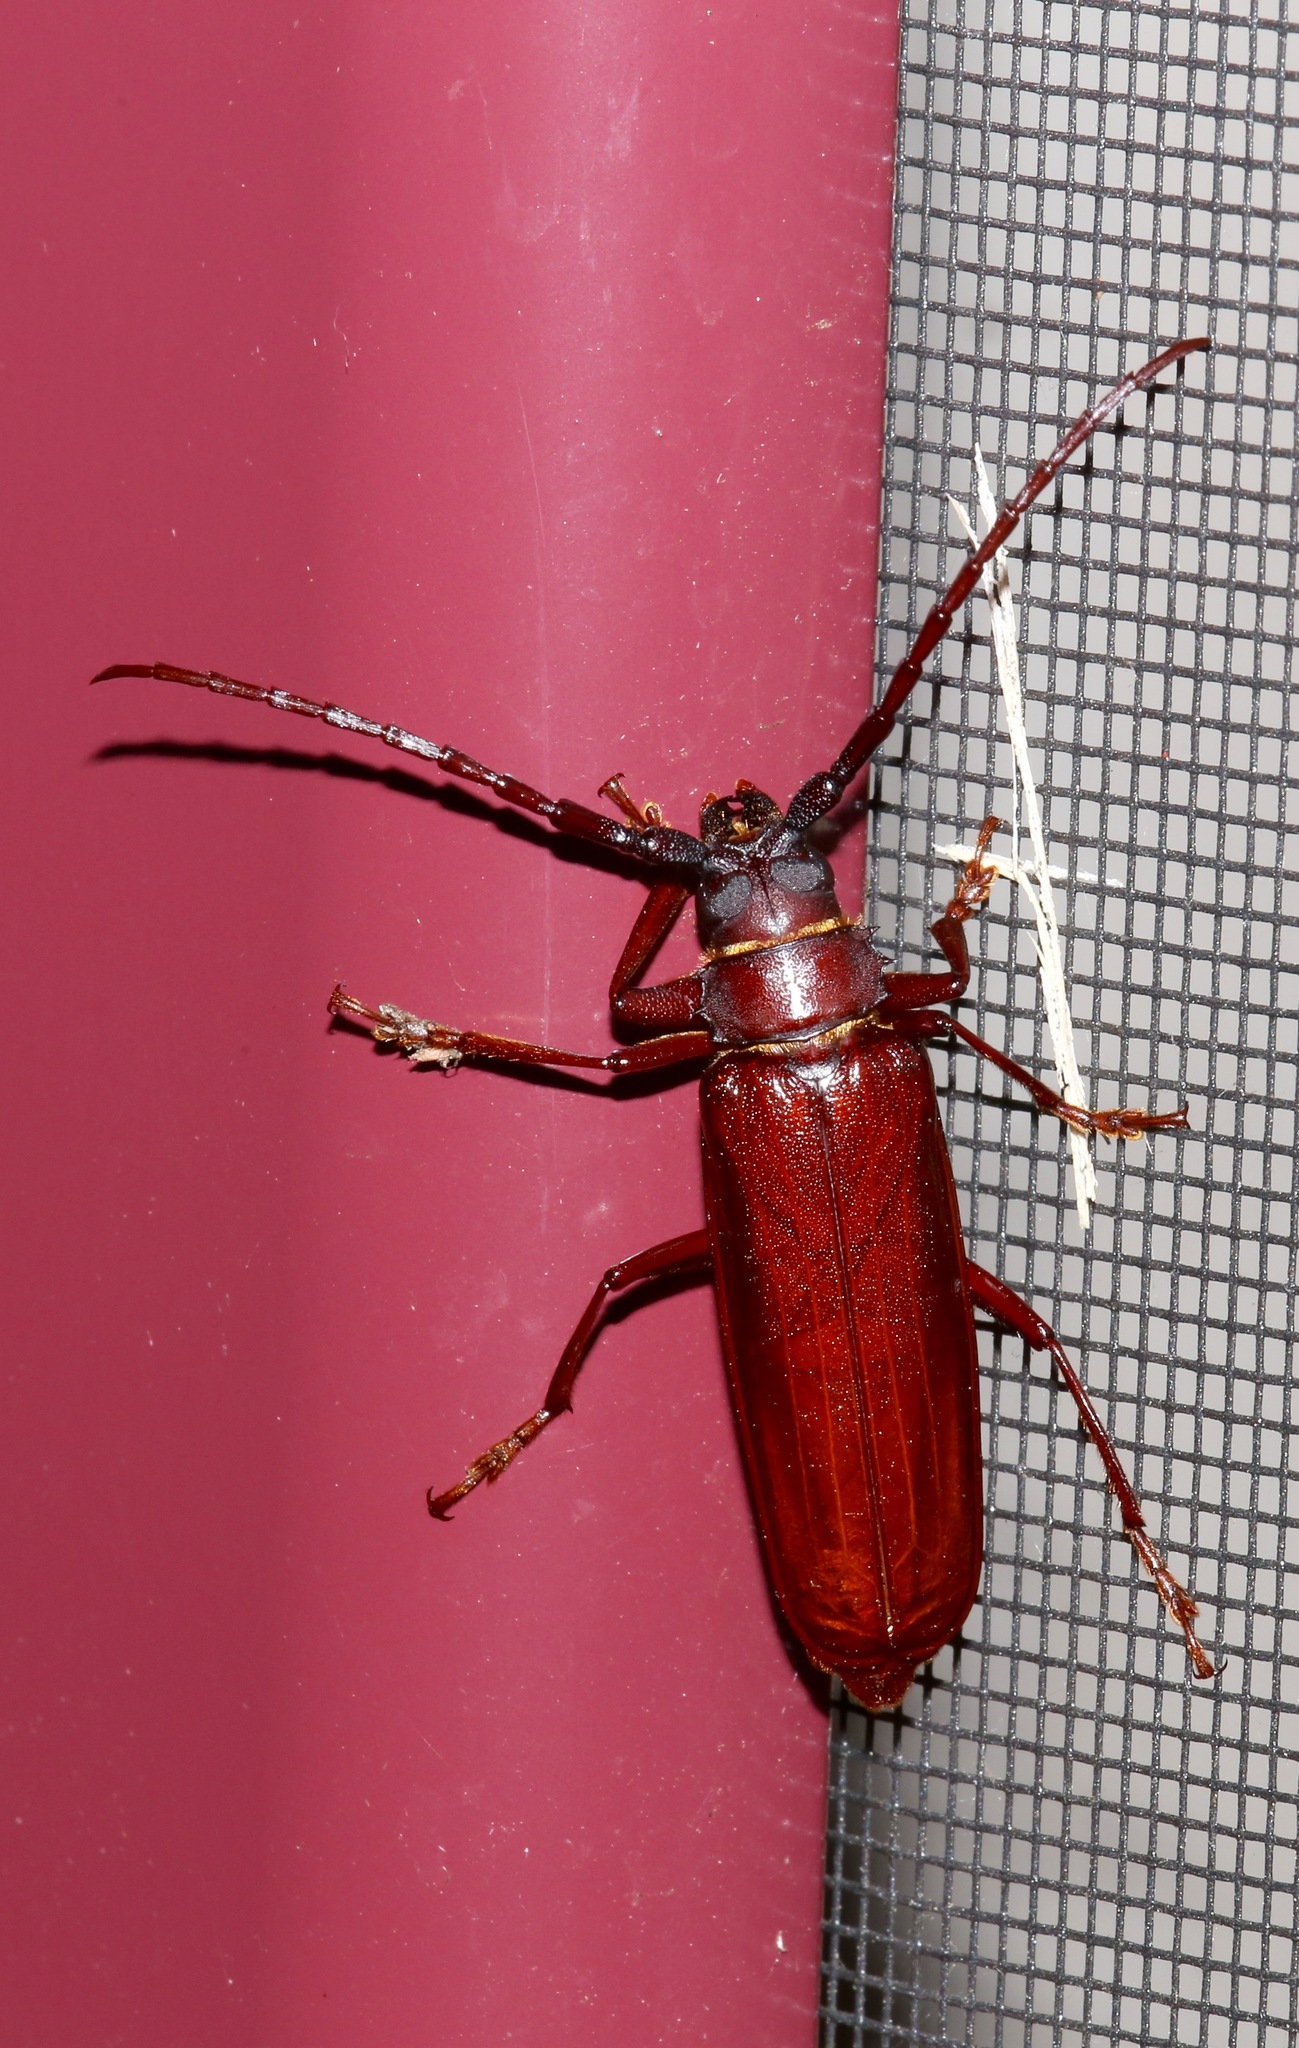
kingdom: Animalia
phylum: Arthropoda
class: Insecta
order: Coleoptera
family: Cerambycidae
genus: Orthosoma
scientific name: Orthosoma brunneum
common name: Brown prionid beetle
